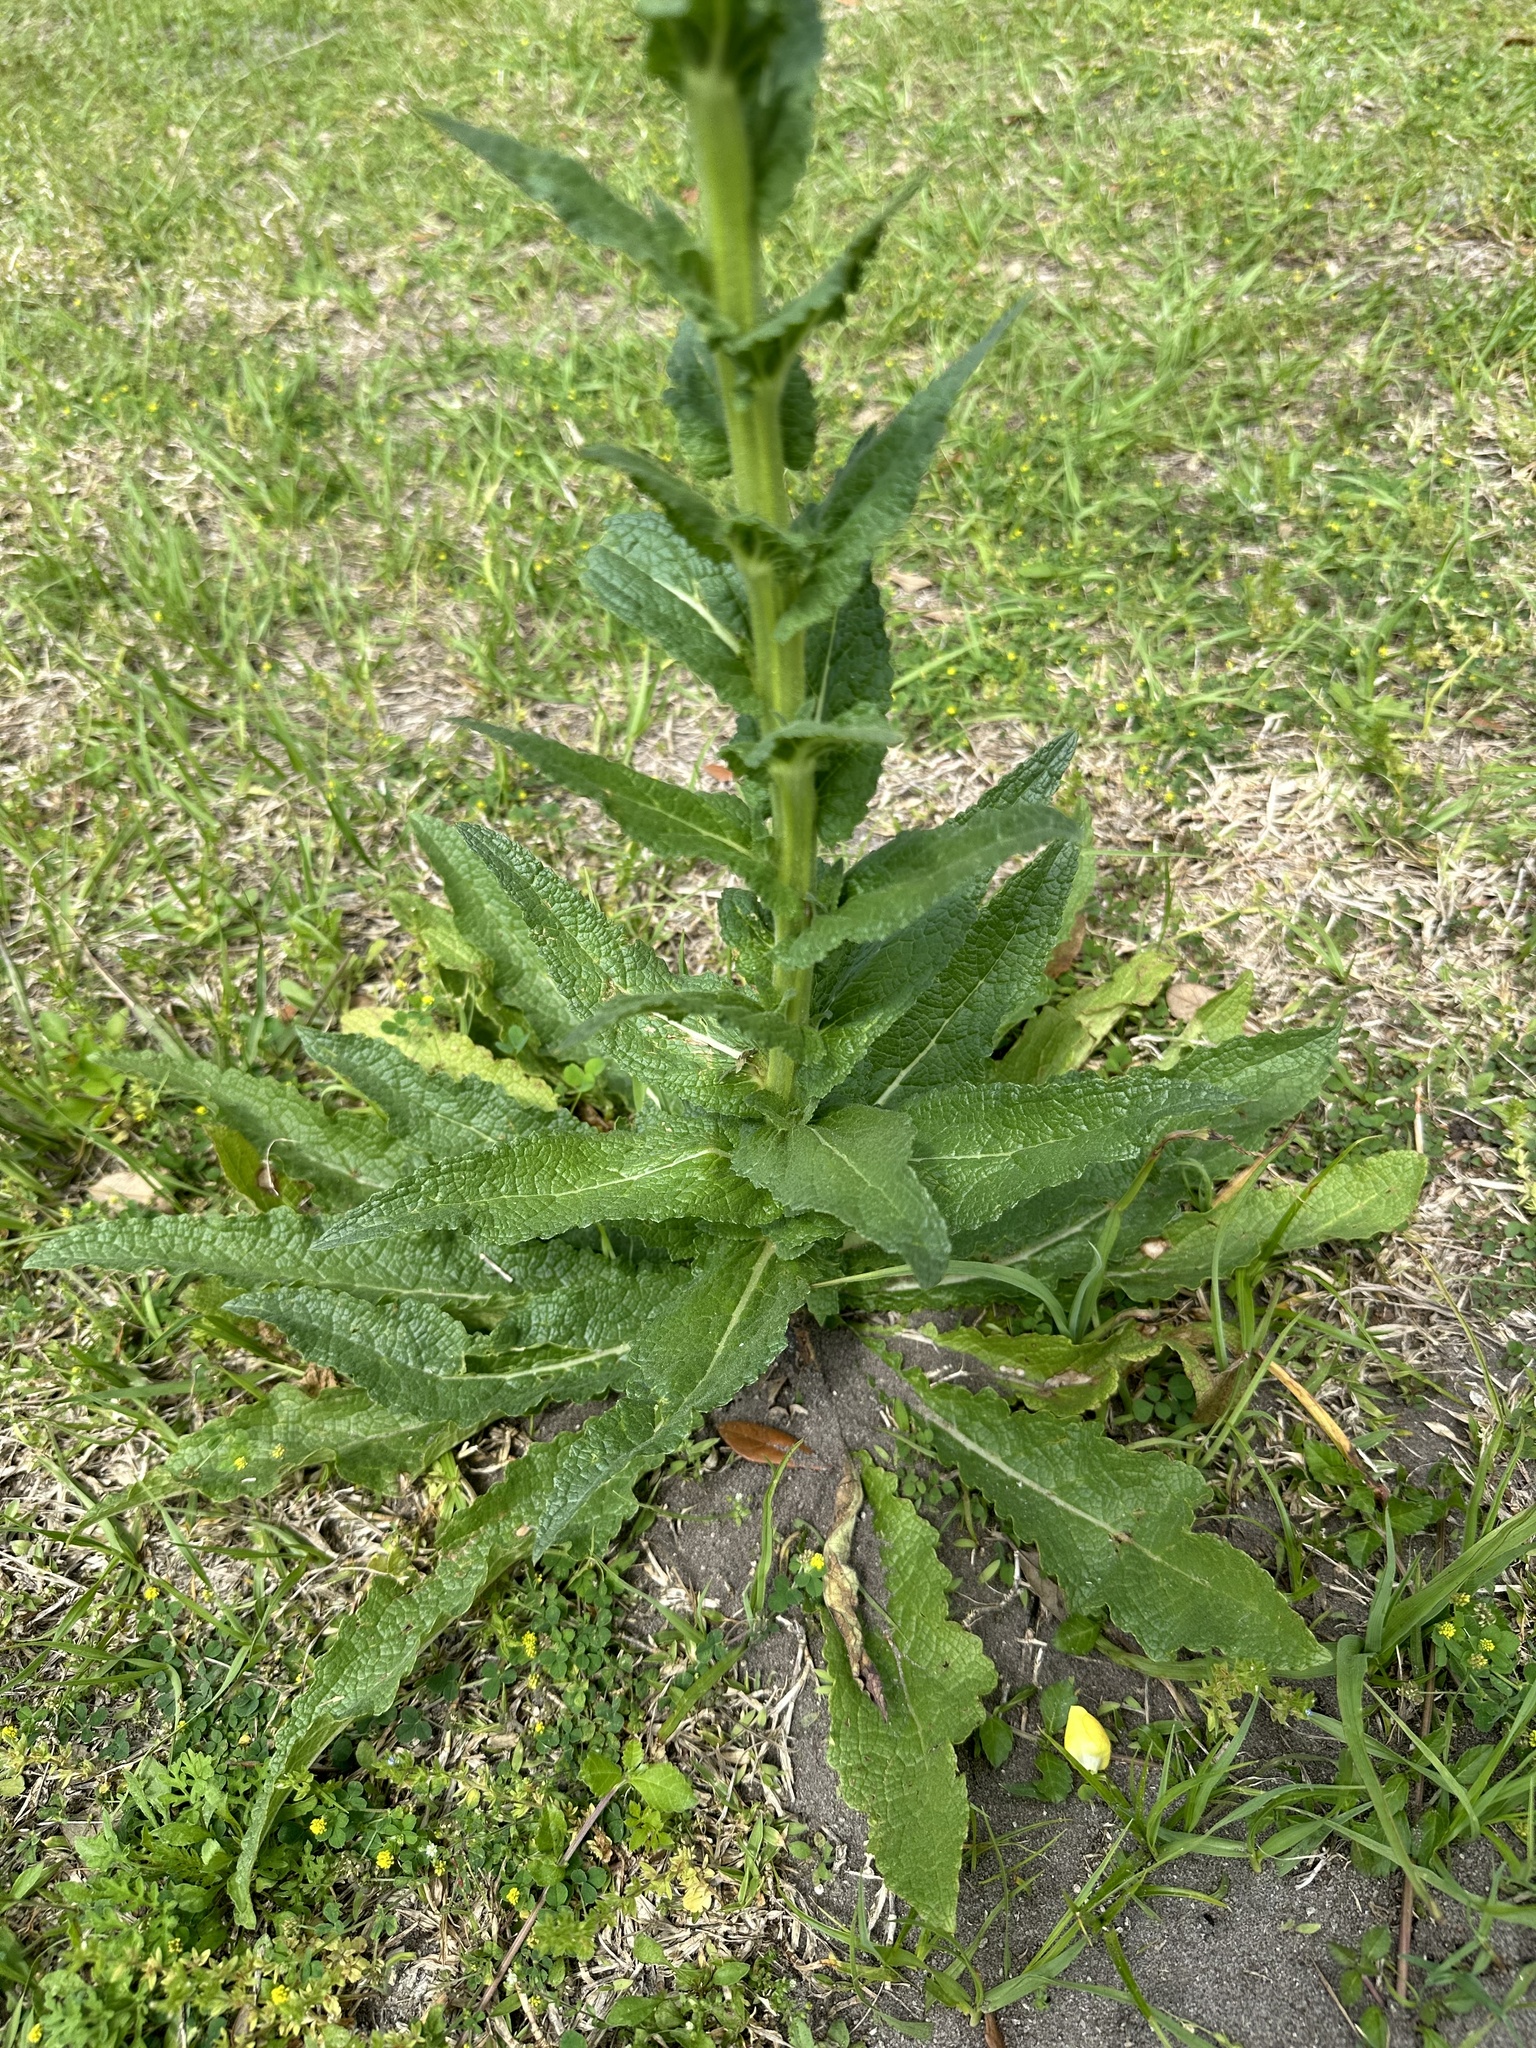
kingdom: Plantae
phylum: Tracheophyta
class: Magnoliopsida
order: Lamiales
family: Scrophulariaceae
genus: Verbascum
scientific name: Verbascum virgatum
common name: Twiggy mullein
